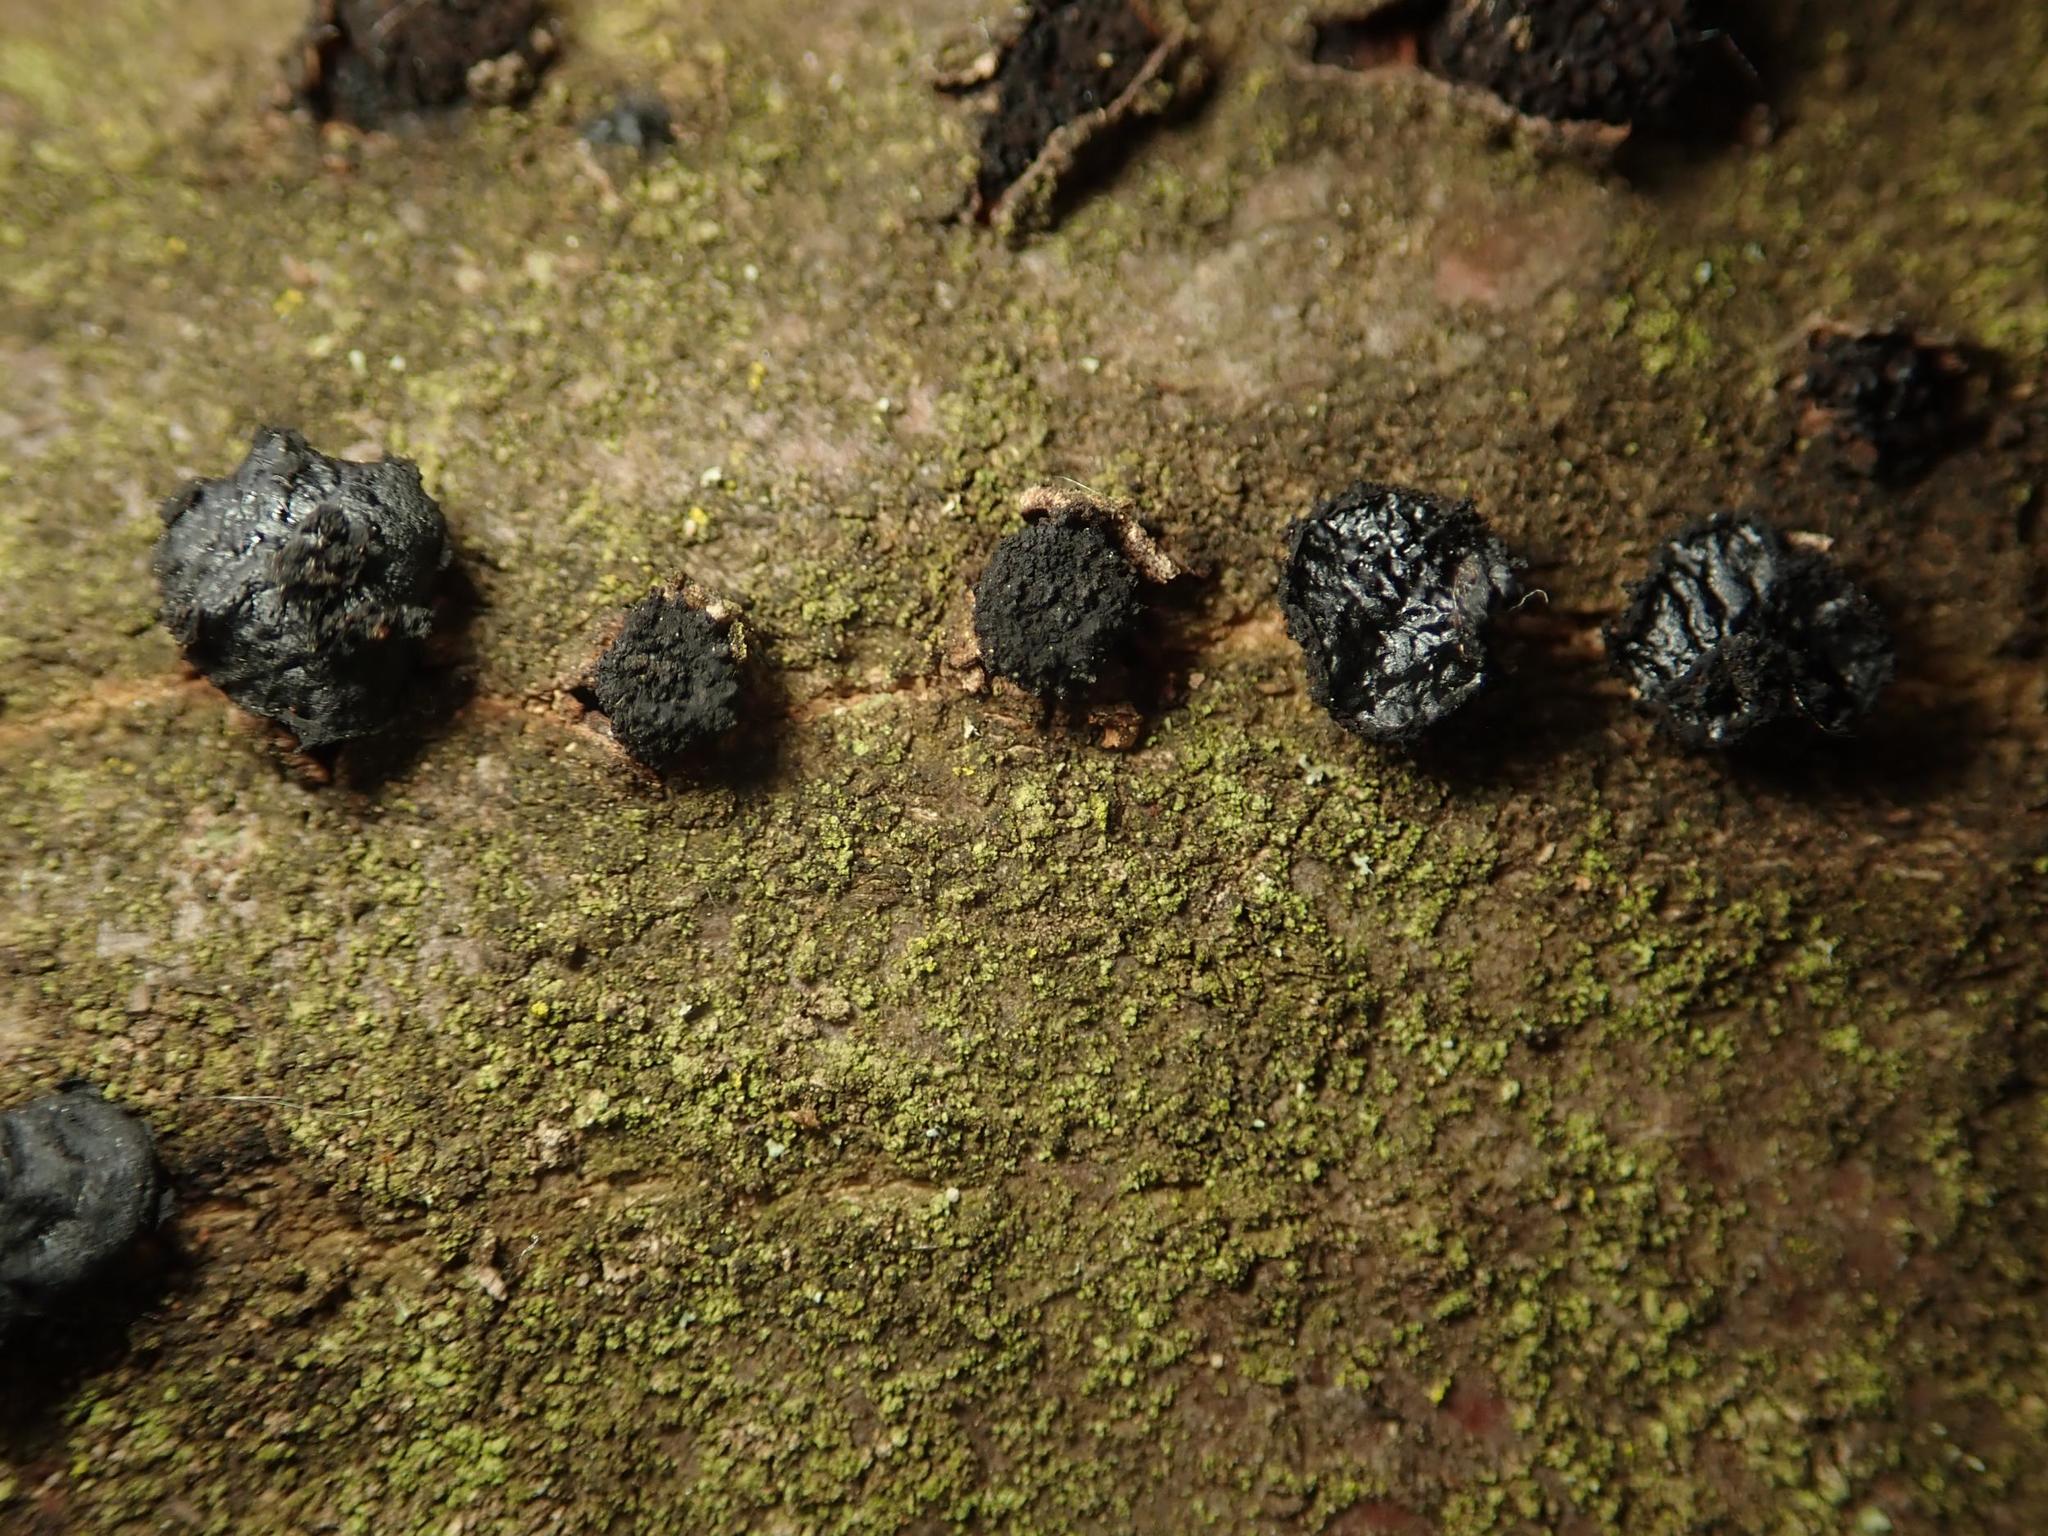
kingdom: Fungi
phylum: Ascomycota
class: Leotiomycetes
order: Phacidiales
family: Phacidiaceae
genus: Bulgaria
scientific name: Bulgaria inquinans
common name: Black bulgar
